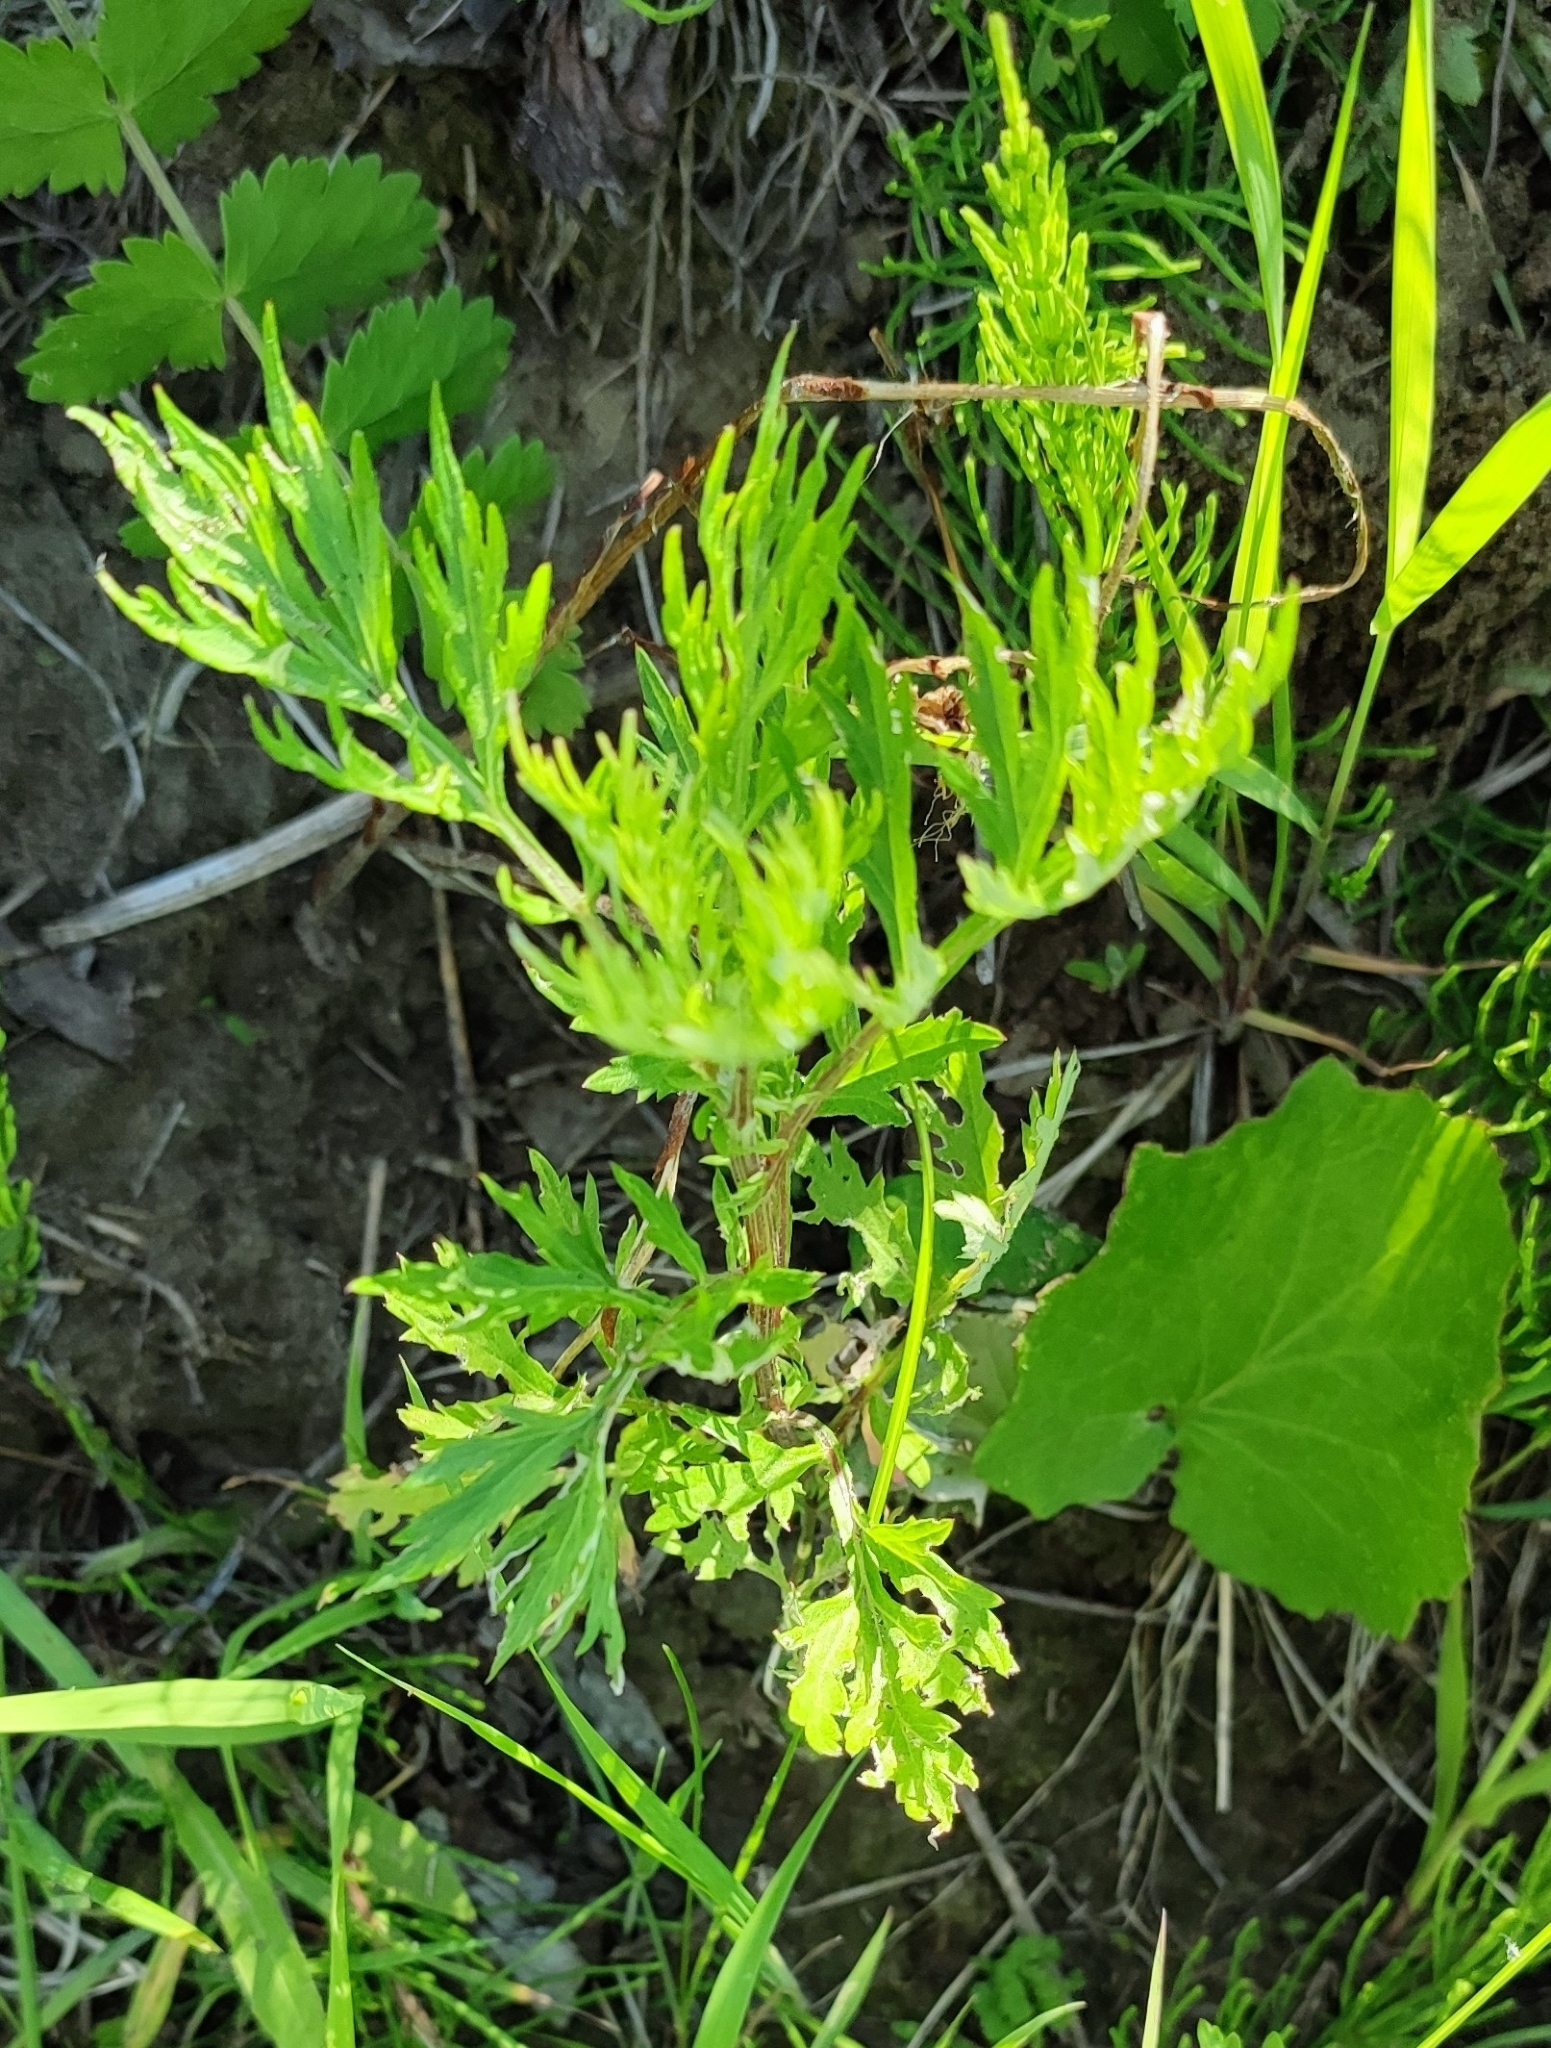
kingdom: Plantae
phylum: Tracheophyta
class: Magnoliopsida
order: Asterales
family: Asteraceae
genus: Artemisia
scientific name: Artemisia vulgaris
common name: Mugwort
